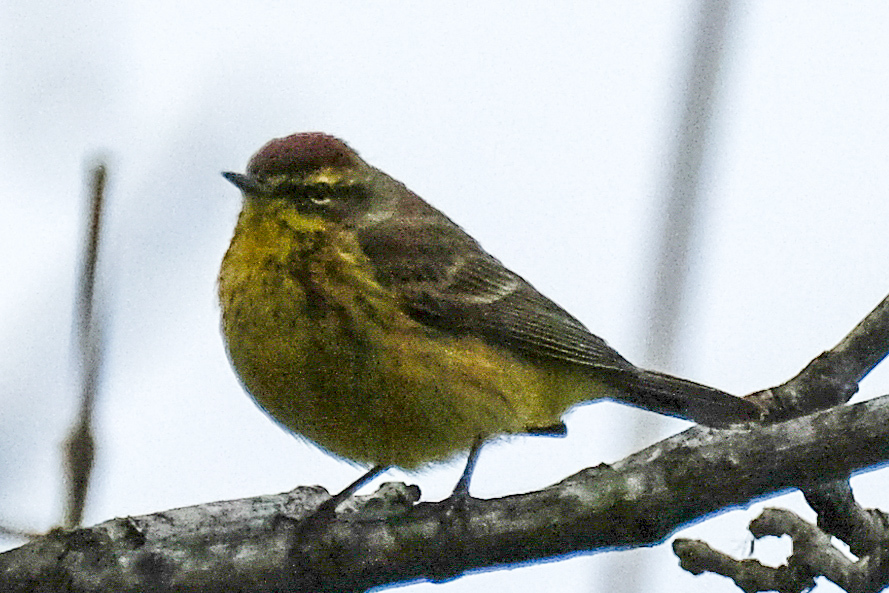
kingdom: Animalia
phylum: Chordata
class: Aves
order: Passeriformes
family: Parulidae
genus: Setophaga
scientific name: Setophaga palmarum
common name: Palm warbler
